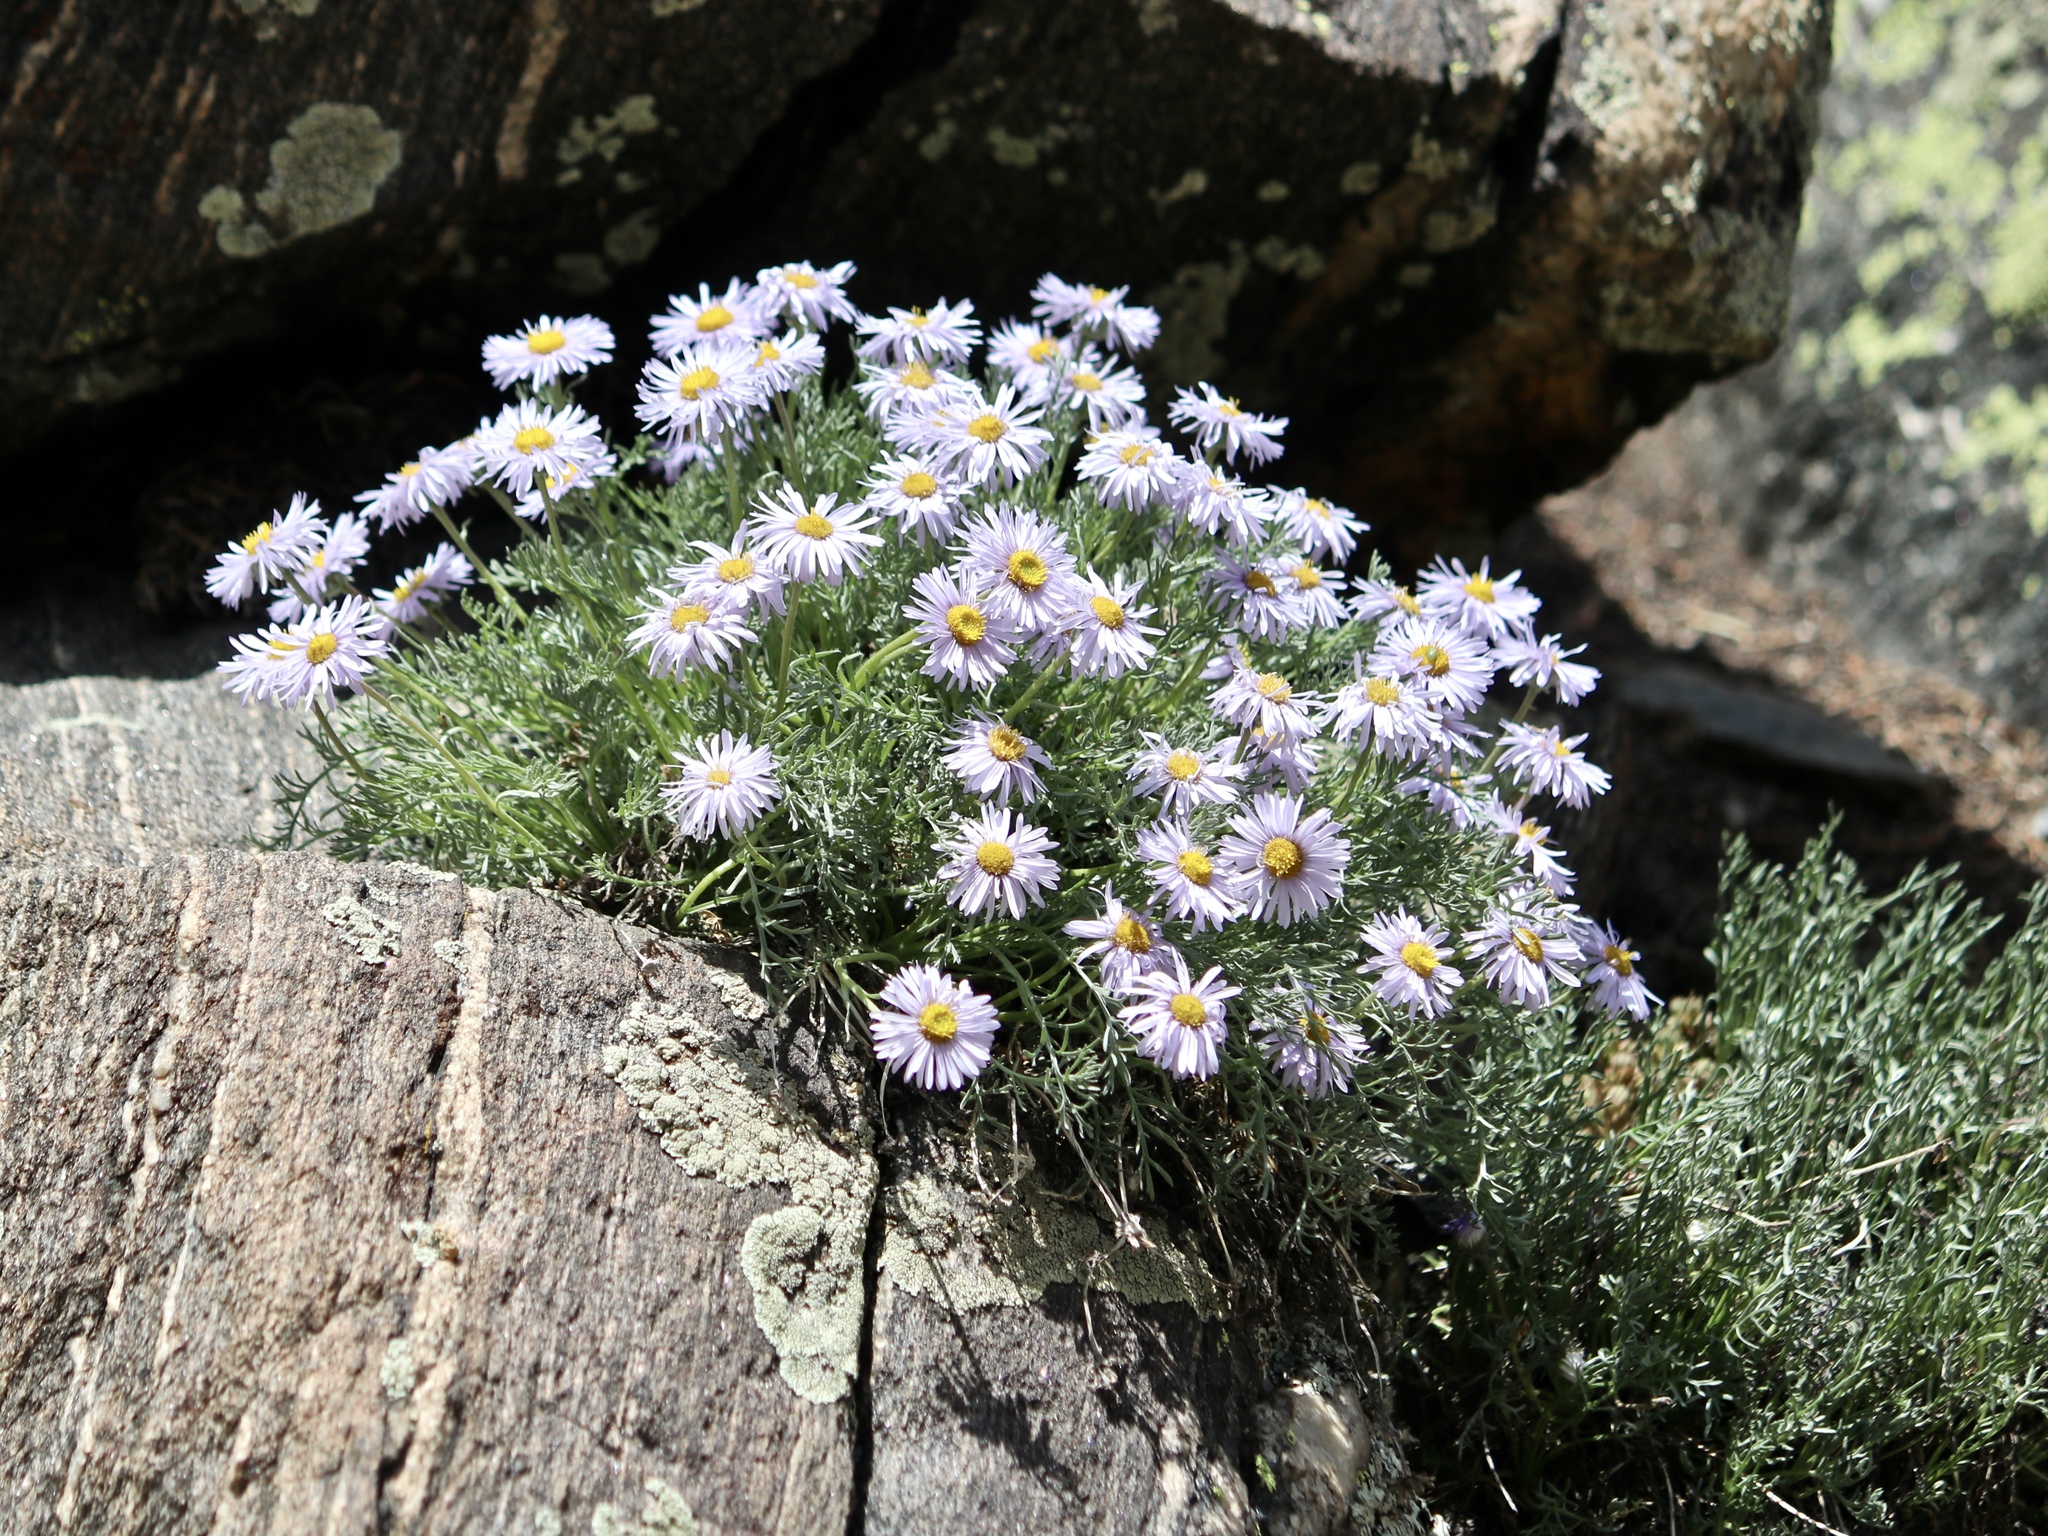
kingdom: Plantae
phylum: Tracheophyta
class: Magnoliopsida
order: Asterales
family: Asteraceae
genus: Erigeron
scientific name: Erigeron pinnatisectus
